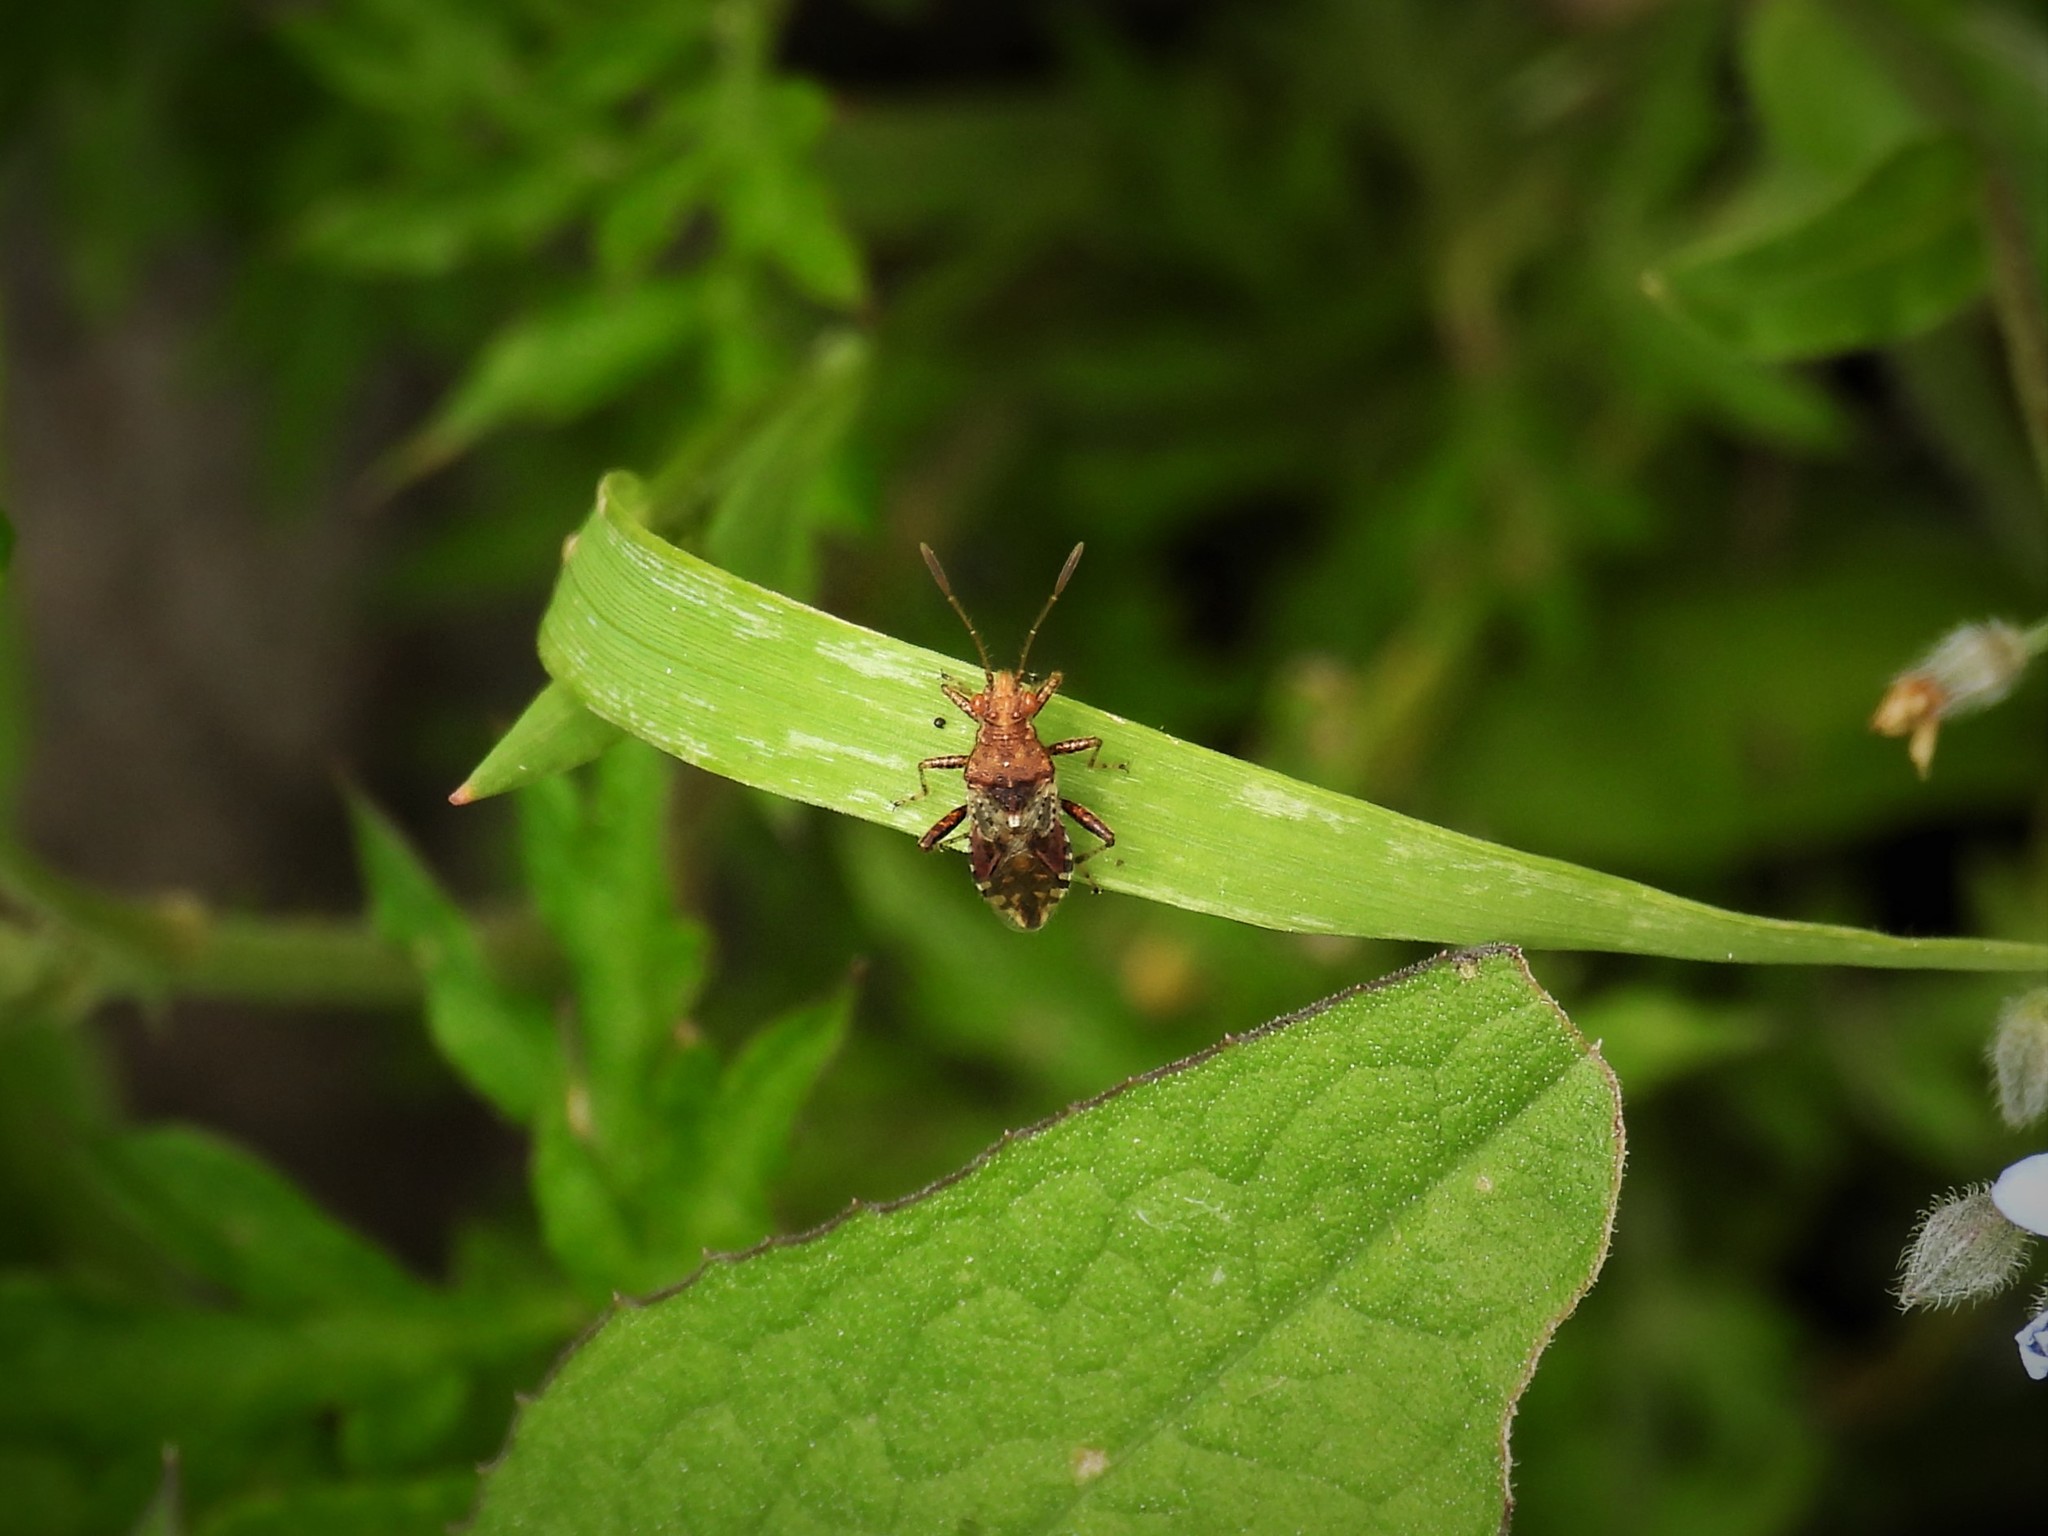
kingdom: Animalia
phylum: Arthropoda
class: Insecta
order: Hemiptera
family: Rhopalidae
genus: Rhopalus
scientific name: Rhopalus subrufus
